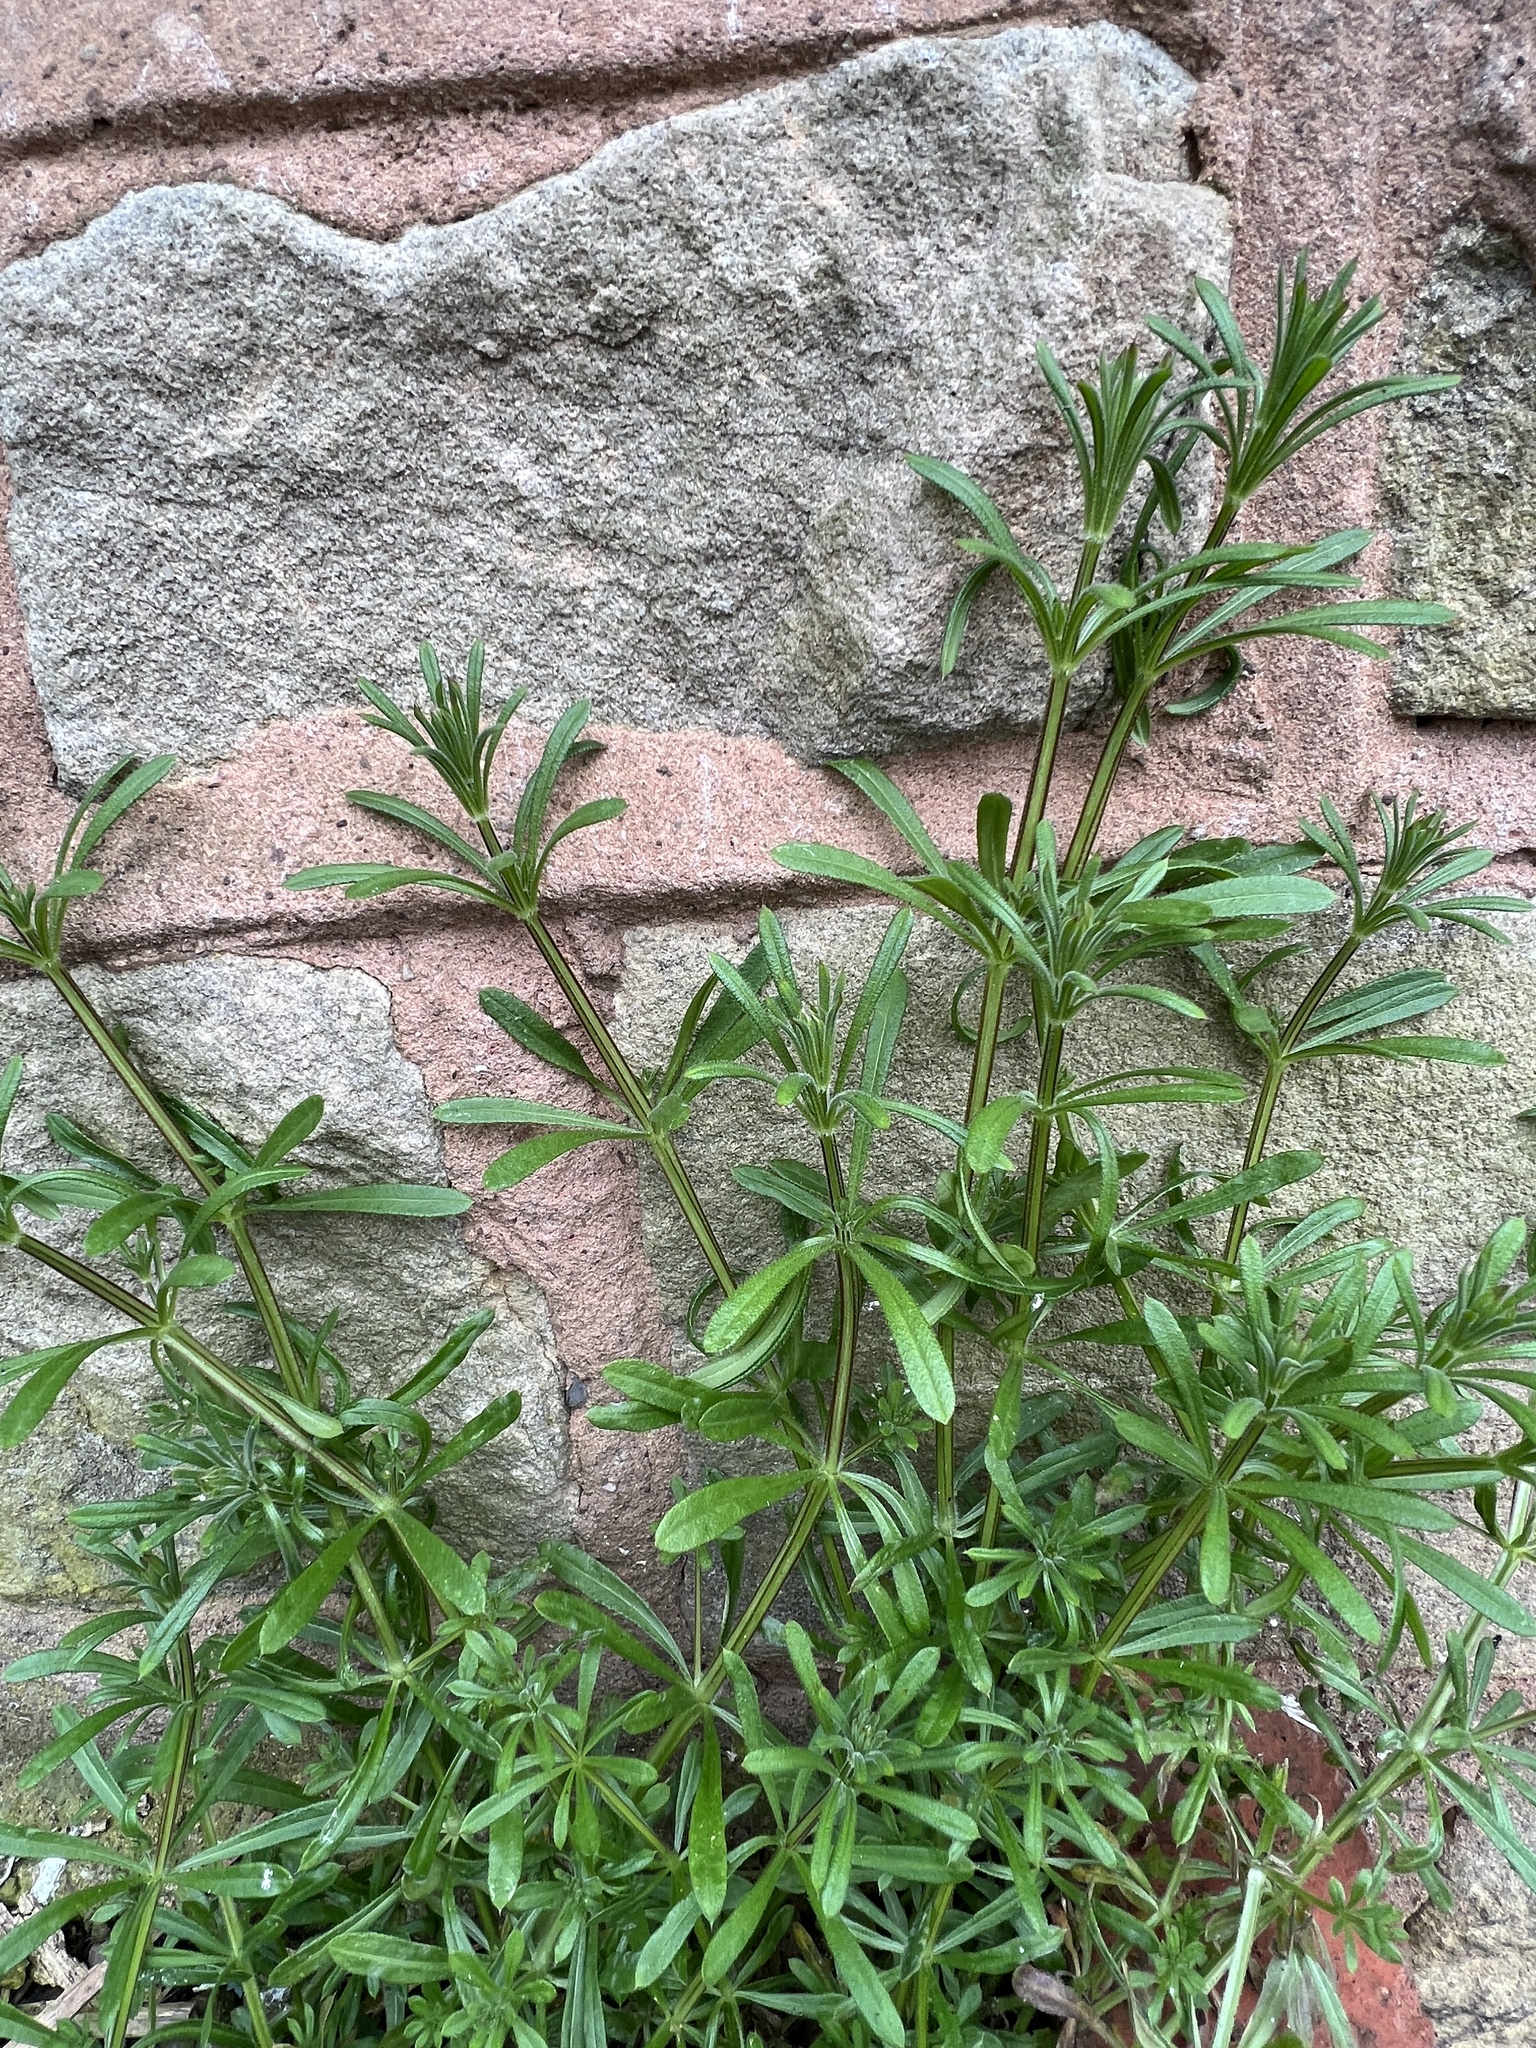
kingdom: Plantae
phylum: Tracheophyta
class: Magnoliopsida
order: Gentianales
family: Rubiaceae
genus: Galium
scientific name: Galium aparine
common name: Cleavers
